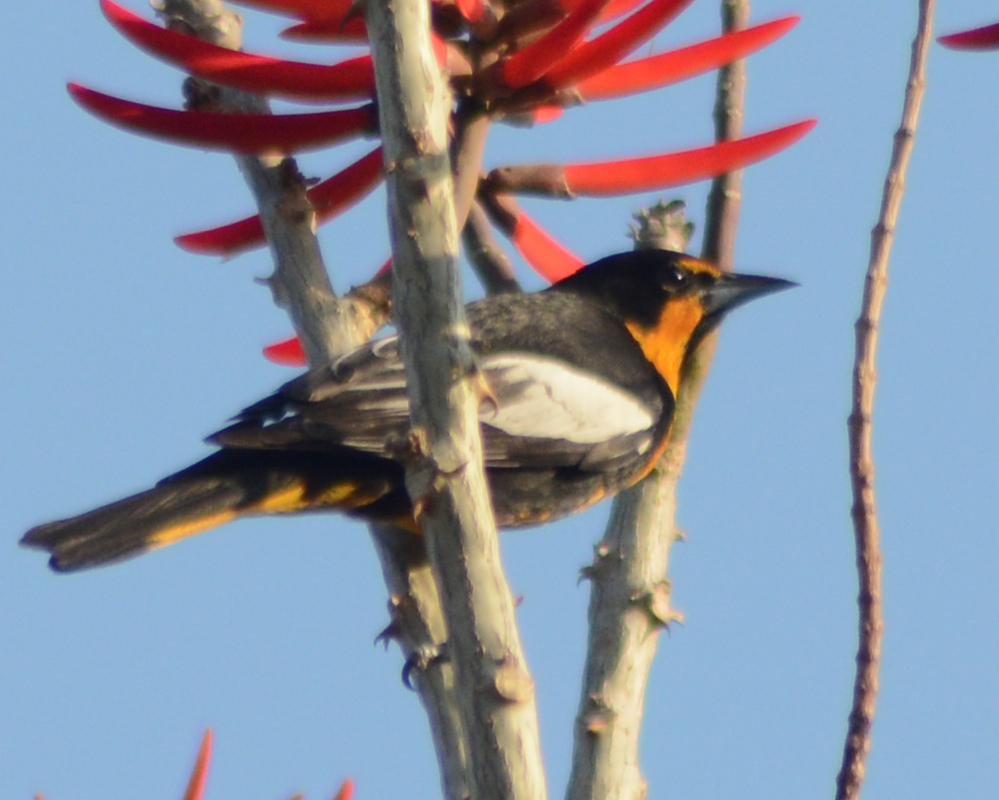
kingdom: Animalia
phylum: Chordata
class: Aves
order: Passeriformes
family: Icteridae
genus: Icterus
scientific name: Icterus abeillei
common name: Black-backed oriole
